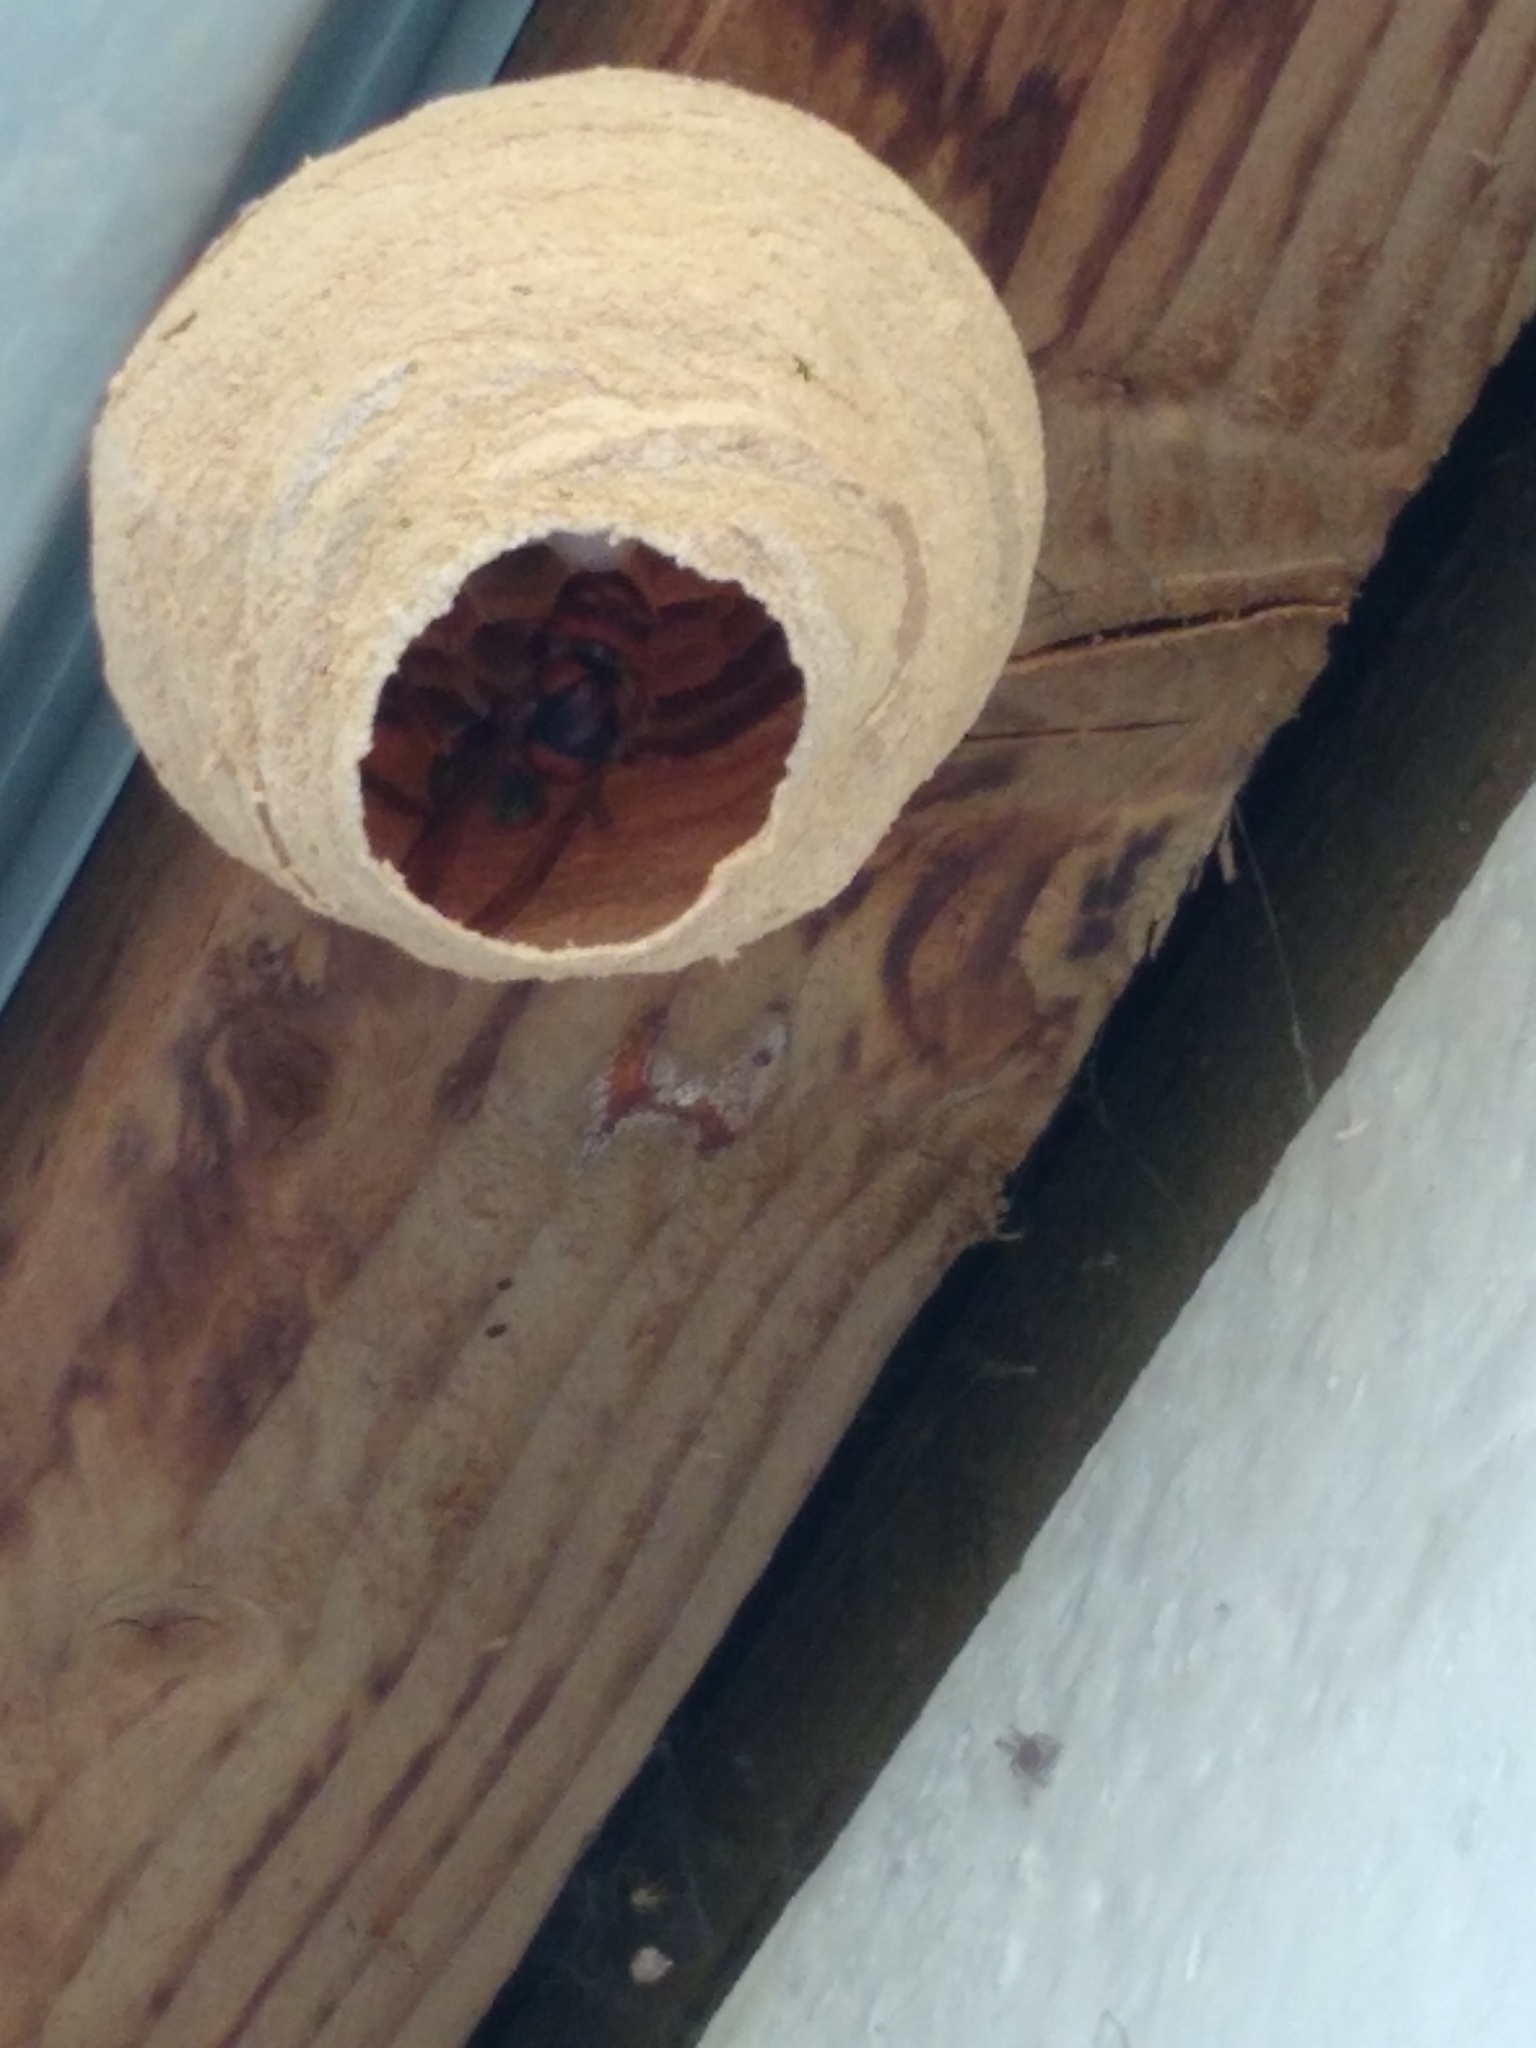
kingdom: Animalia
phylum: Arthropoda
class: Insecta
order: Hymenoptera
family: Vespidae
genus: Vespa
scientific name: Vespa crabro
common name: Hornet
